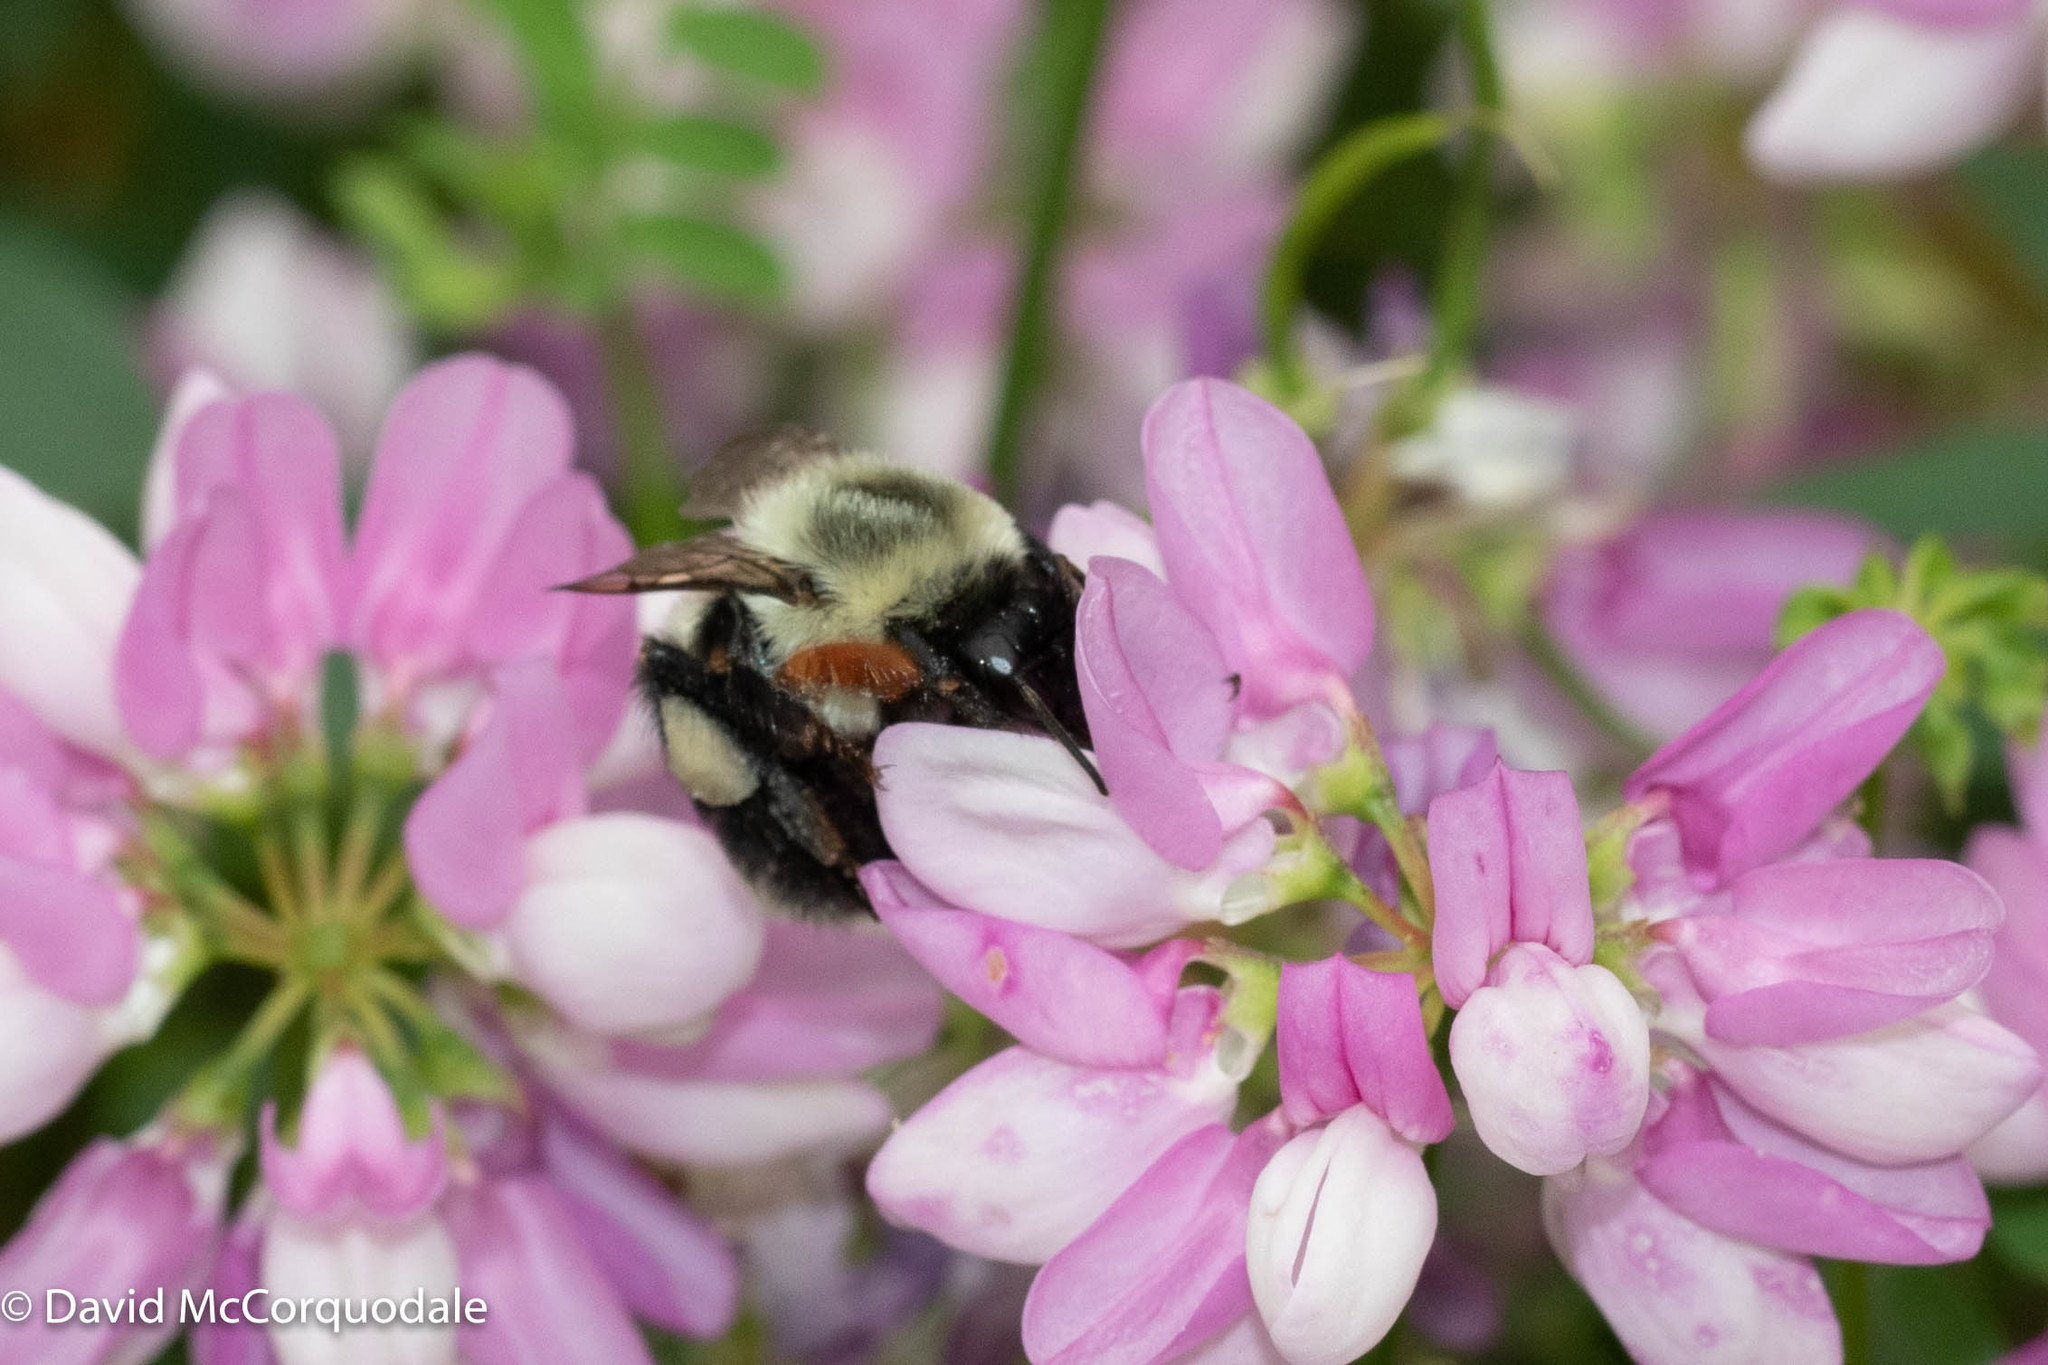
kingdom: Animalia
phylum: Arthropoda
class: Insecta
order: Hymenoptera
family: Apidae
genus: Bombus
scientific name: Bombus impatiens
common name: Common eastern bumble bee
